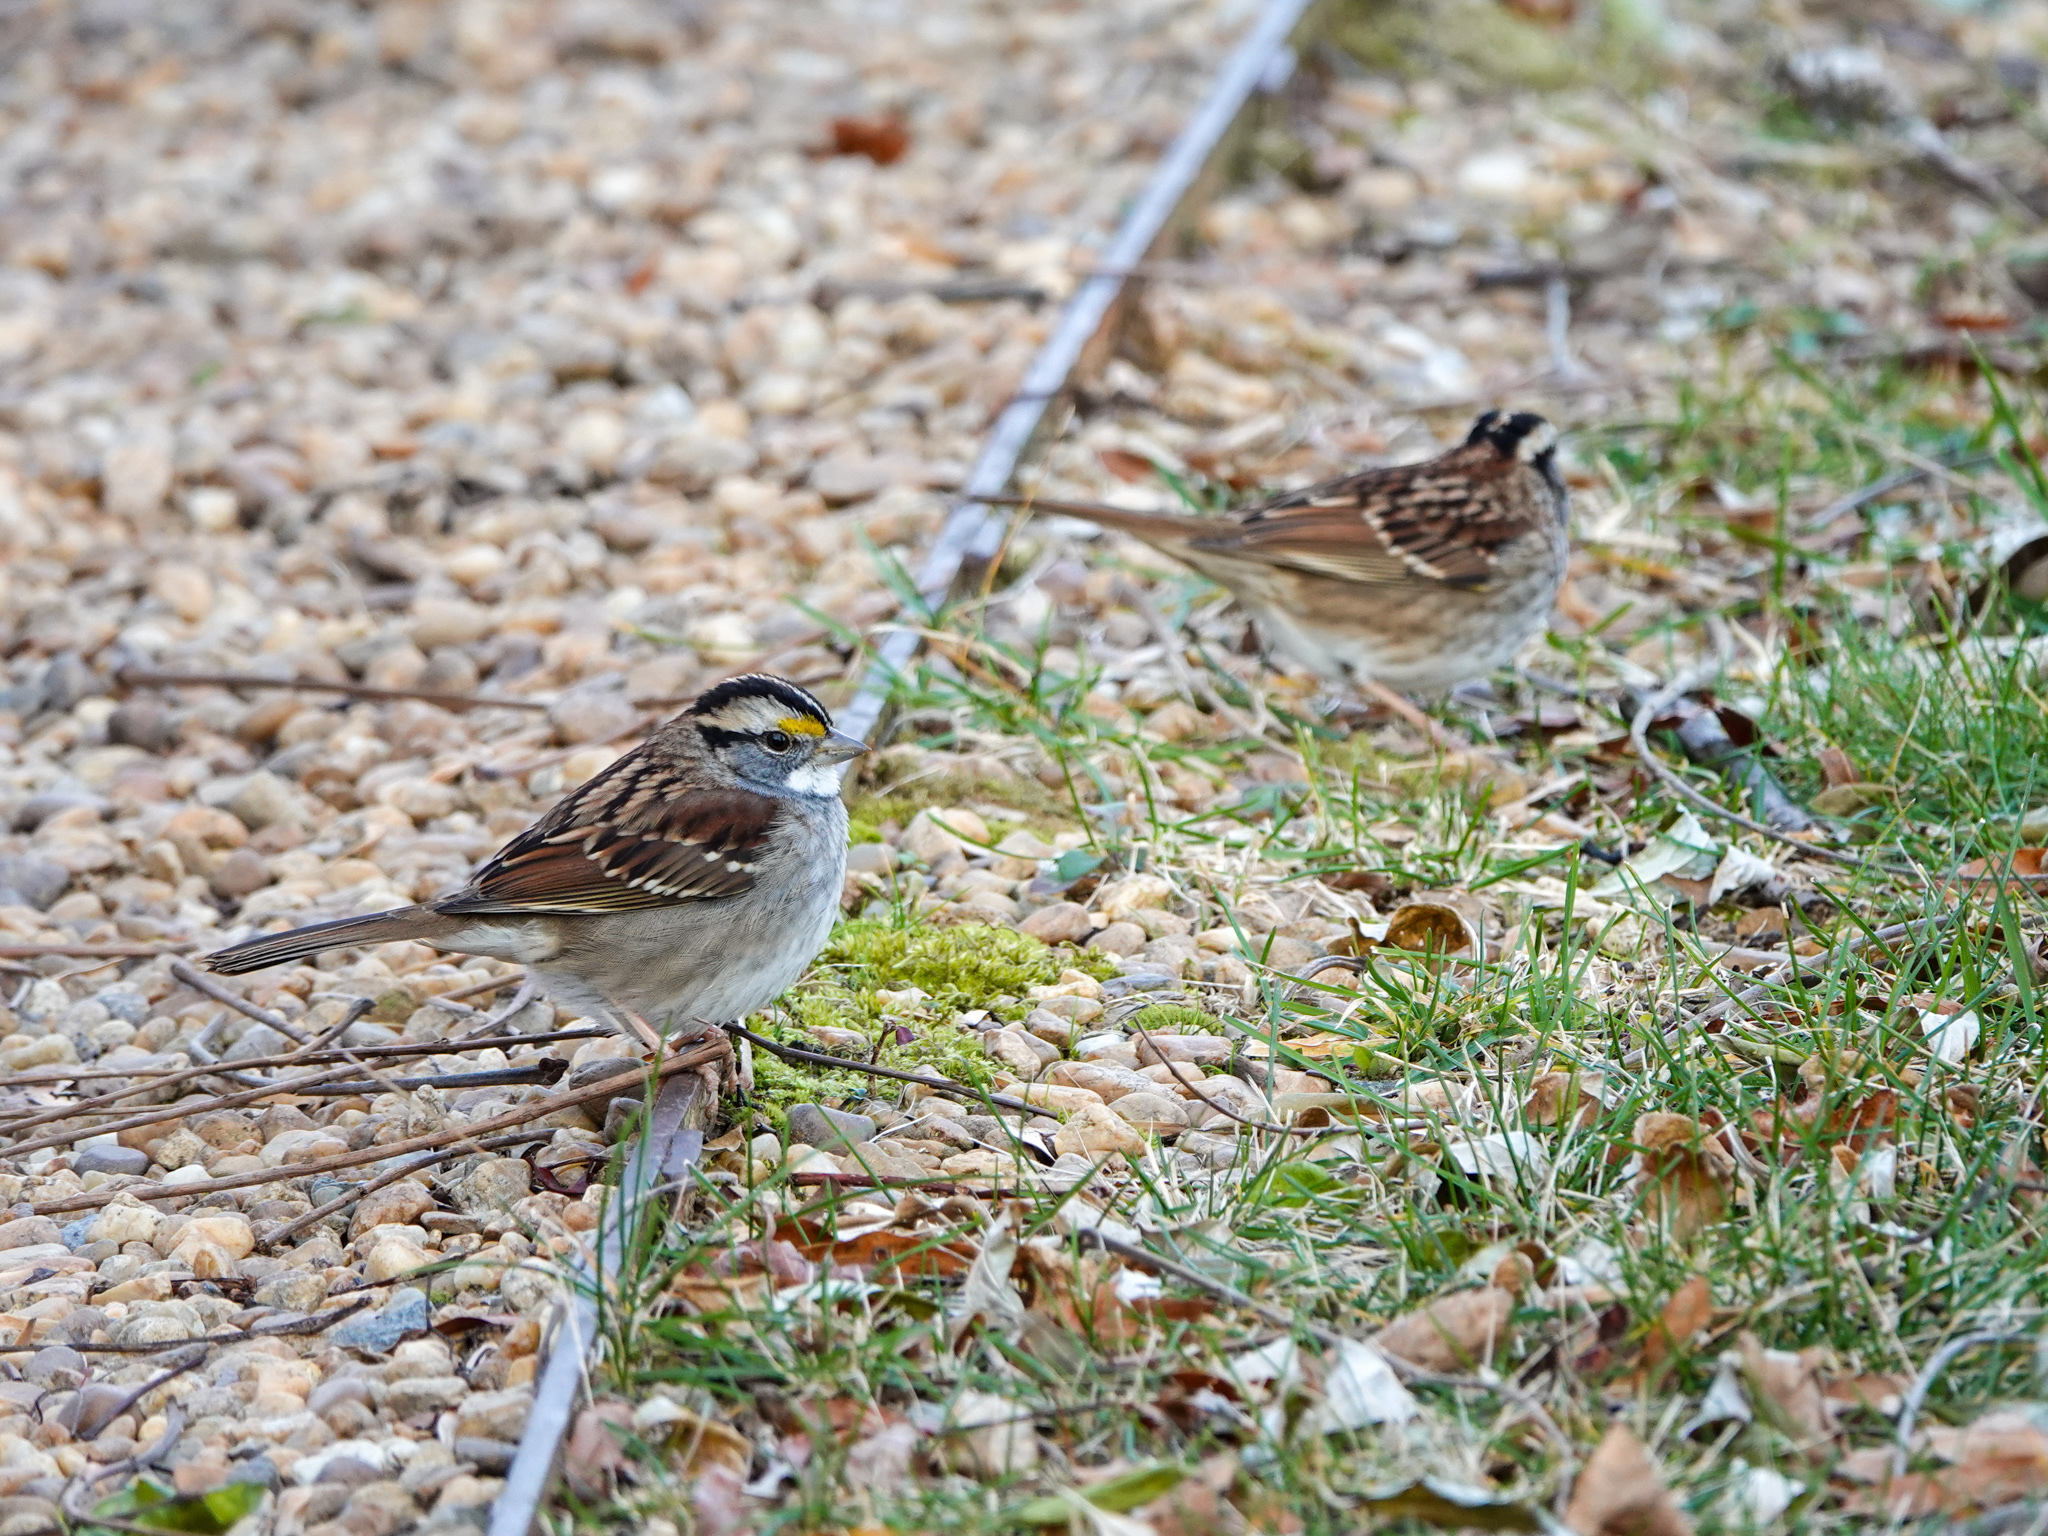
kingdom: Animalia
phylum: Chordata
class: Aves
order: Passeriformes
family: Passerellidae
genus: Zonotrichia
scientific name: Zonotrichia albicollis
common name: White-throated sparrow
